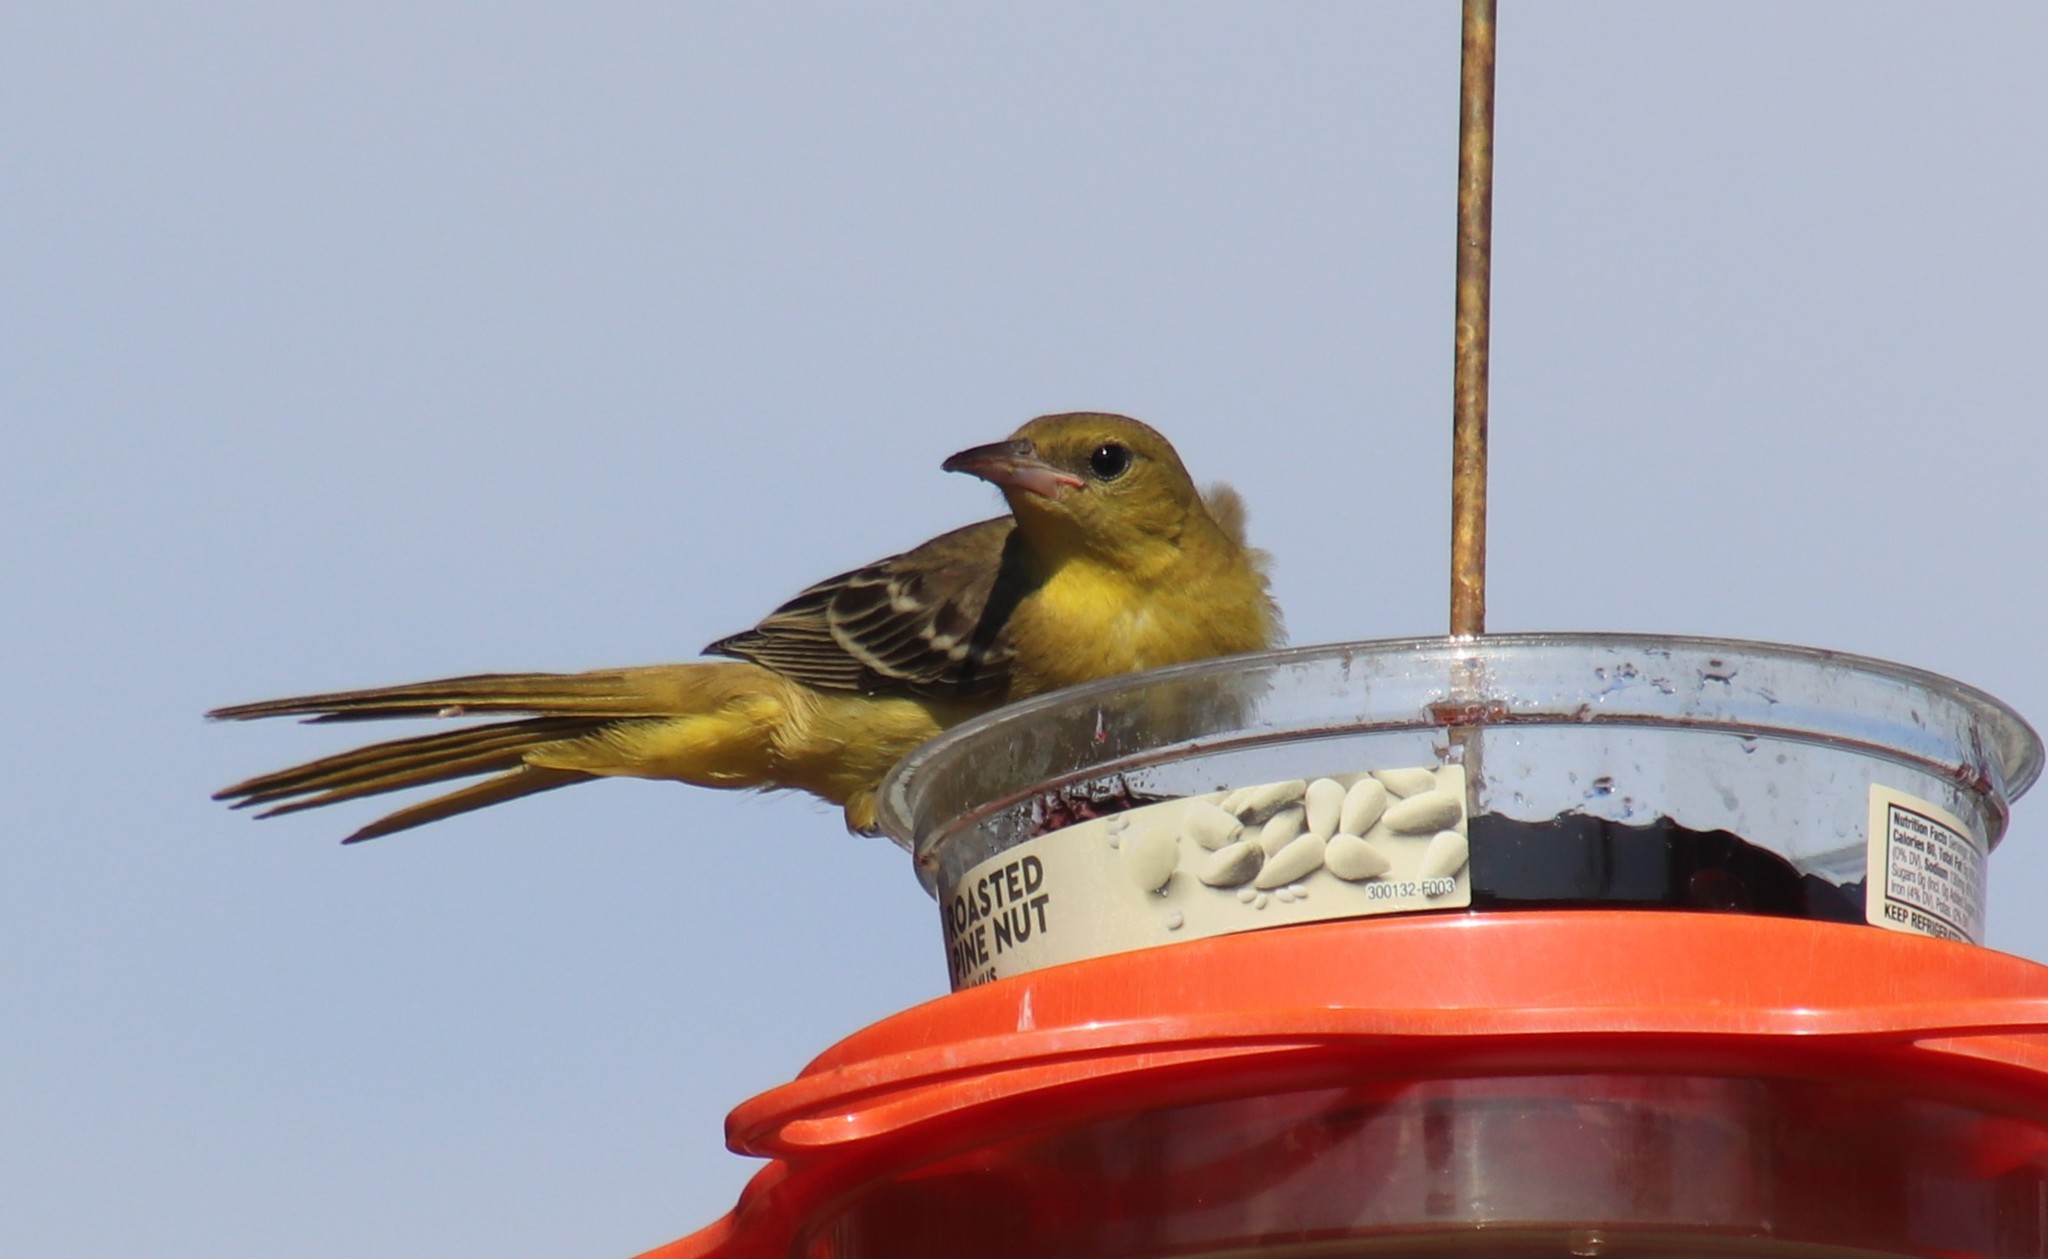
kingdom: Animalia
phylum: Chordata
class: Aves
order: Passeriformes
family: Icteridae
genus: Icterus
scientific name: Icterus cucullatus
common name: Hooded oriole
